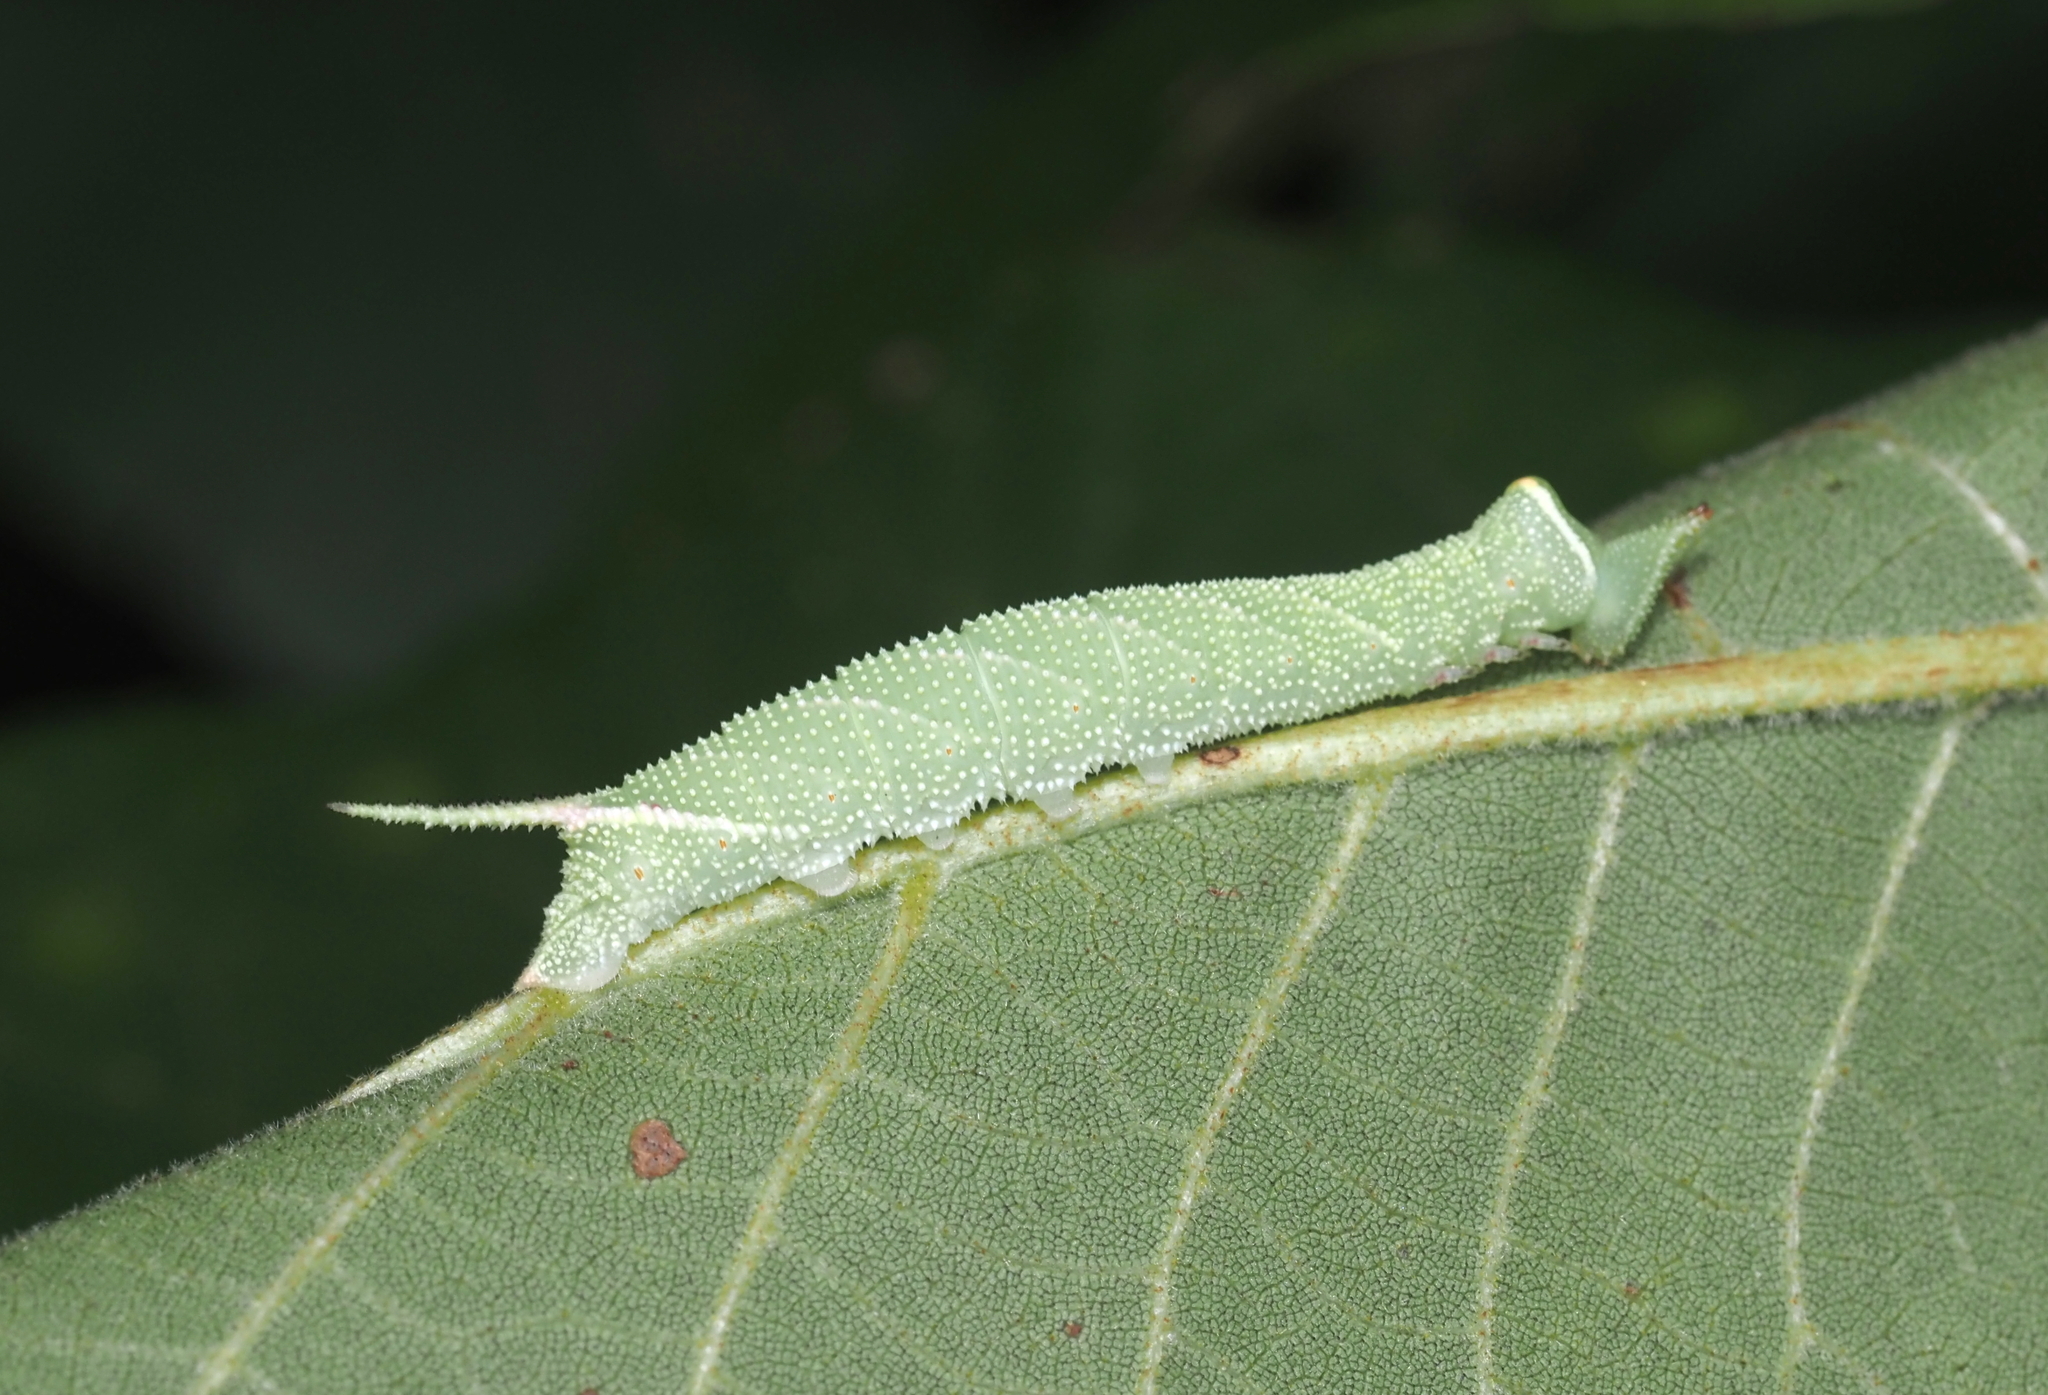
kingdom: Animalia
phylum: Arthropoda
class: Insecta
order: Lepidoptera
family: Sphingidae
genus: Amorpha
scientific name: Amorpha juglandis
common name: Walnut sphinx
